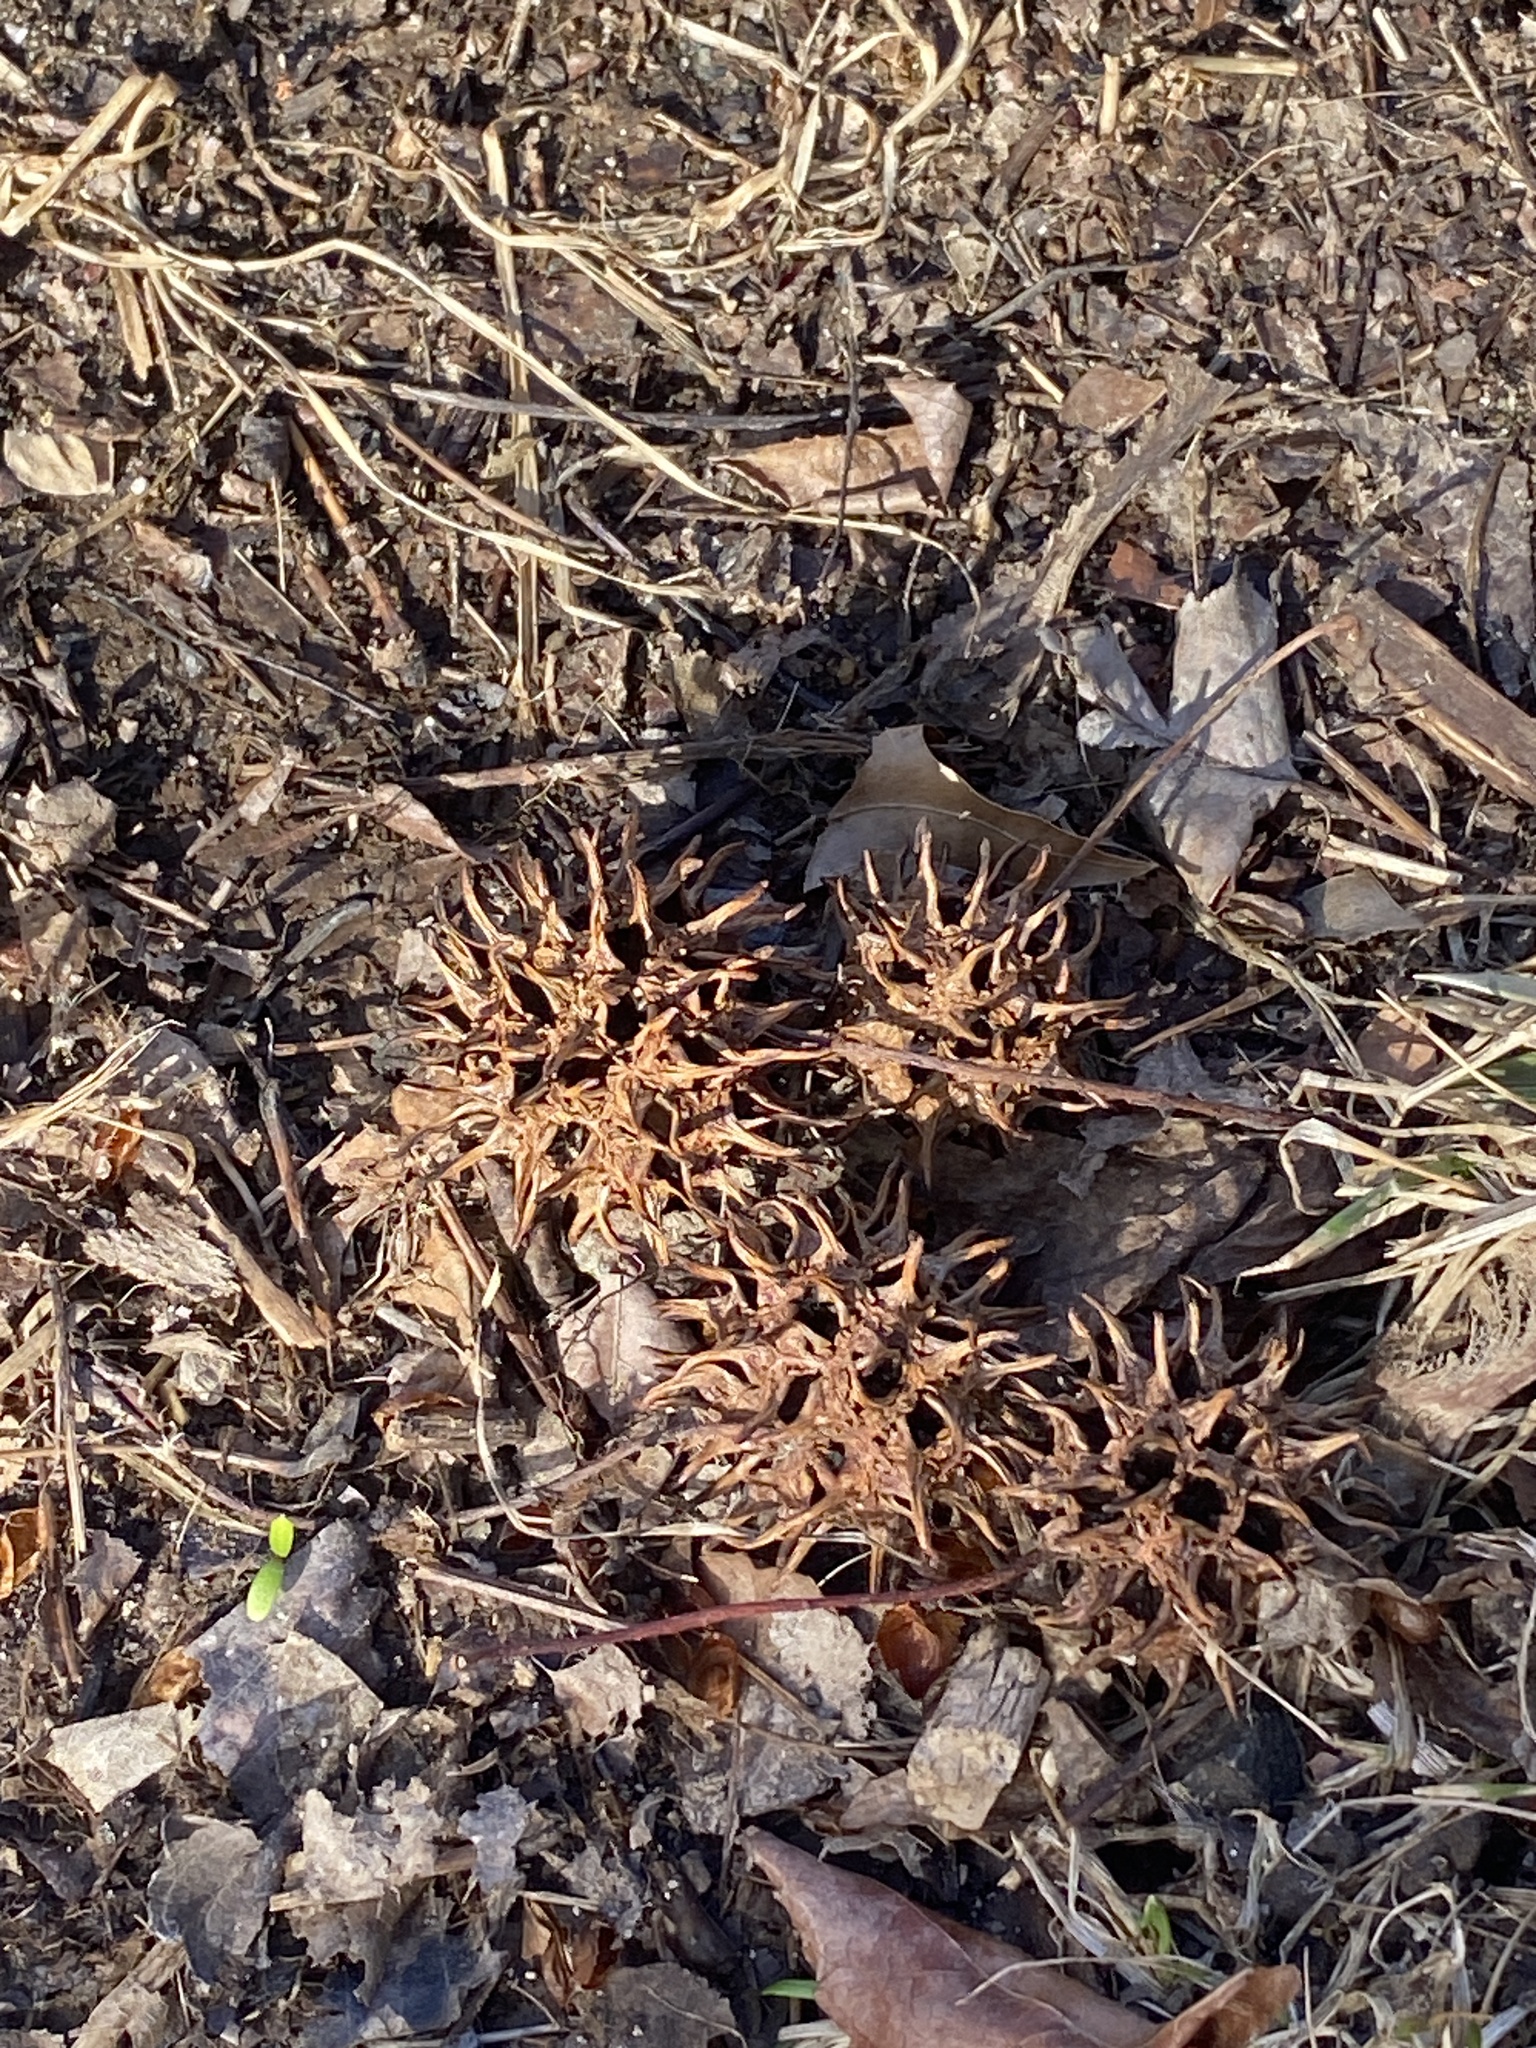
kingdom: Plantae
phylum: Tracheophyta
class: Magnoliopsida
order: Saxifragales
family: Altingiaceae
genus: Liquidambar
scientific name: Liquidambar styraciflua
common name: Sweet gum
